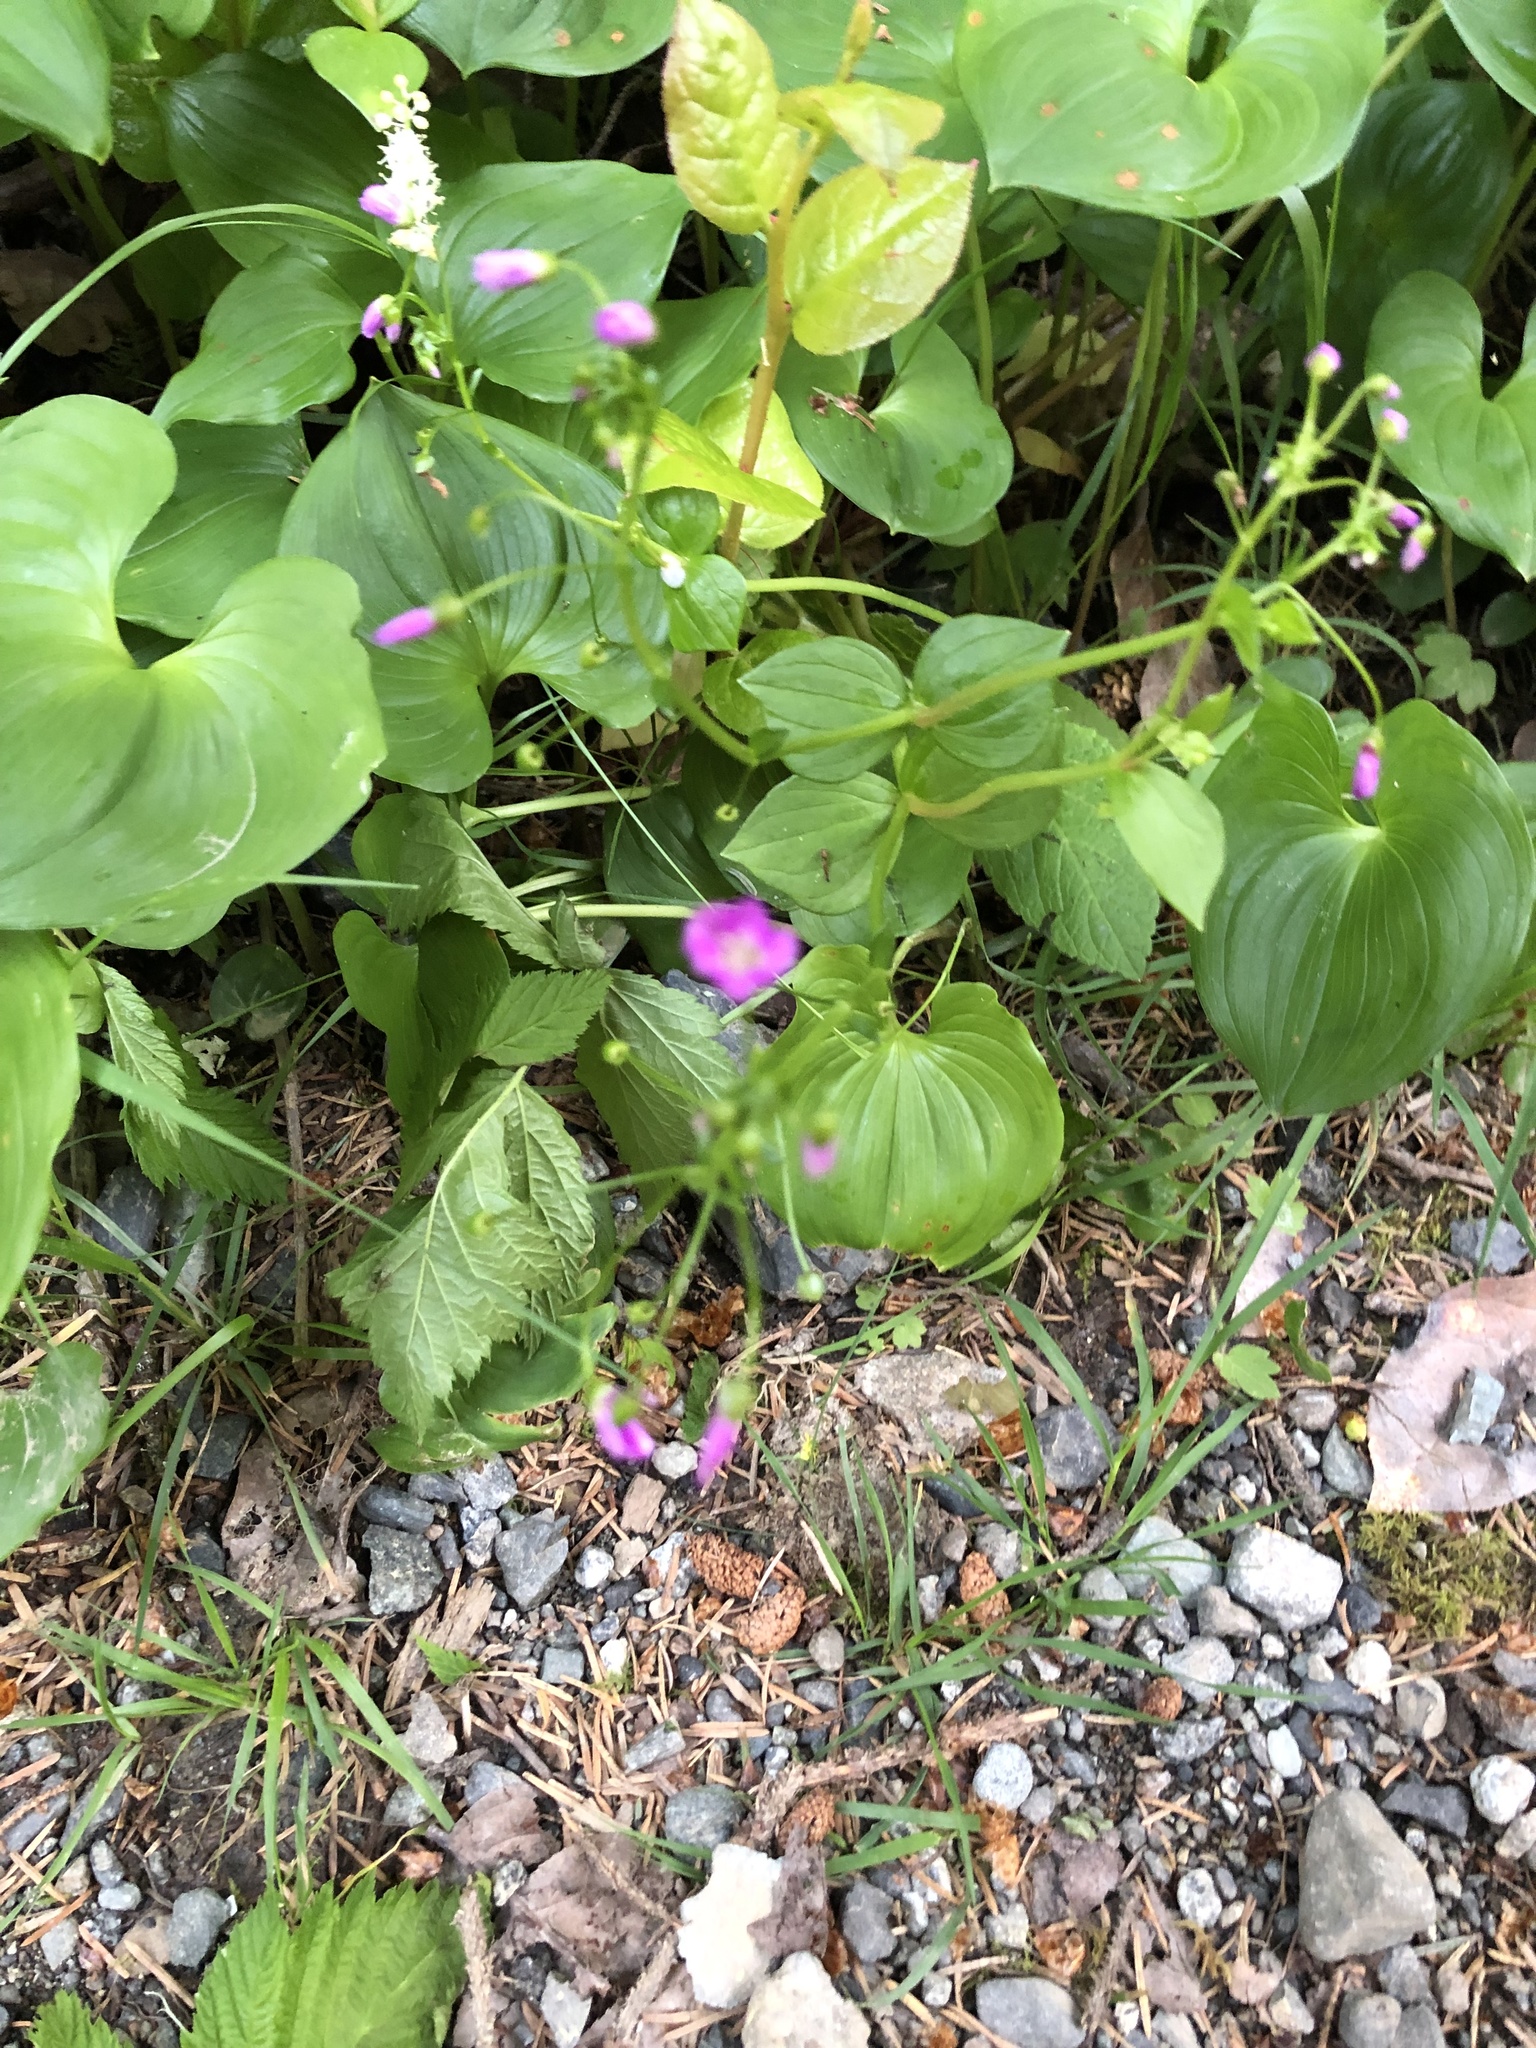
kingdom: Plantae
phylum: Tracheophyta
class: Magnoliopsida
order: Caryophyllales
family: Montiaceae
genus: Claytonia
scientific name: Claytonia sibirica
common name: Pink purslane
